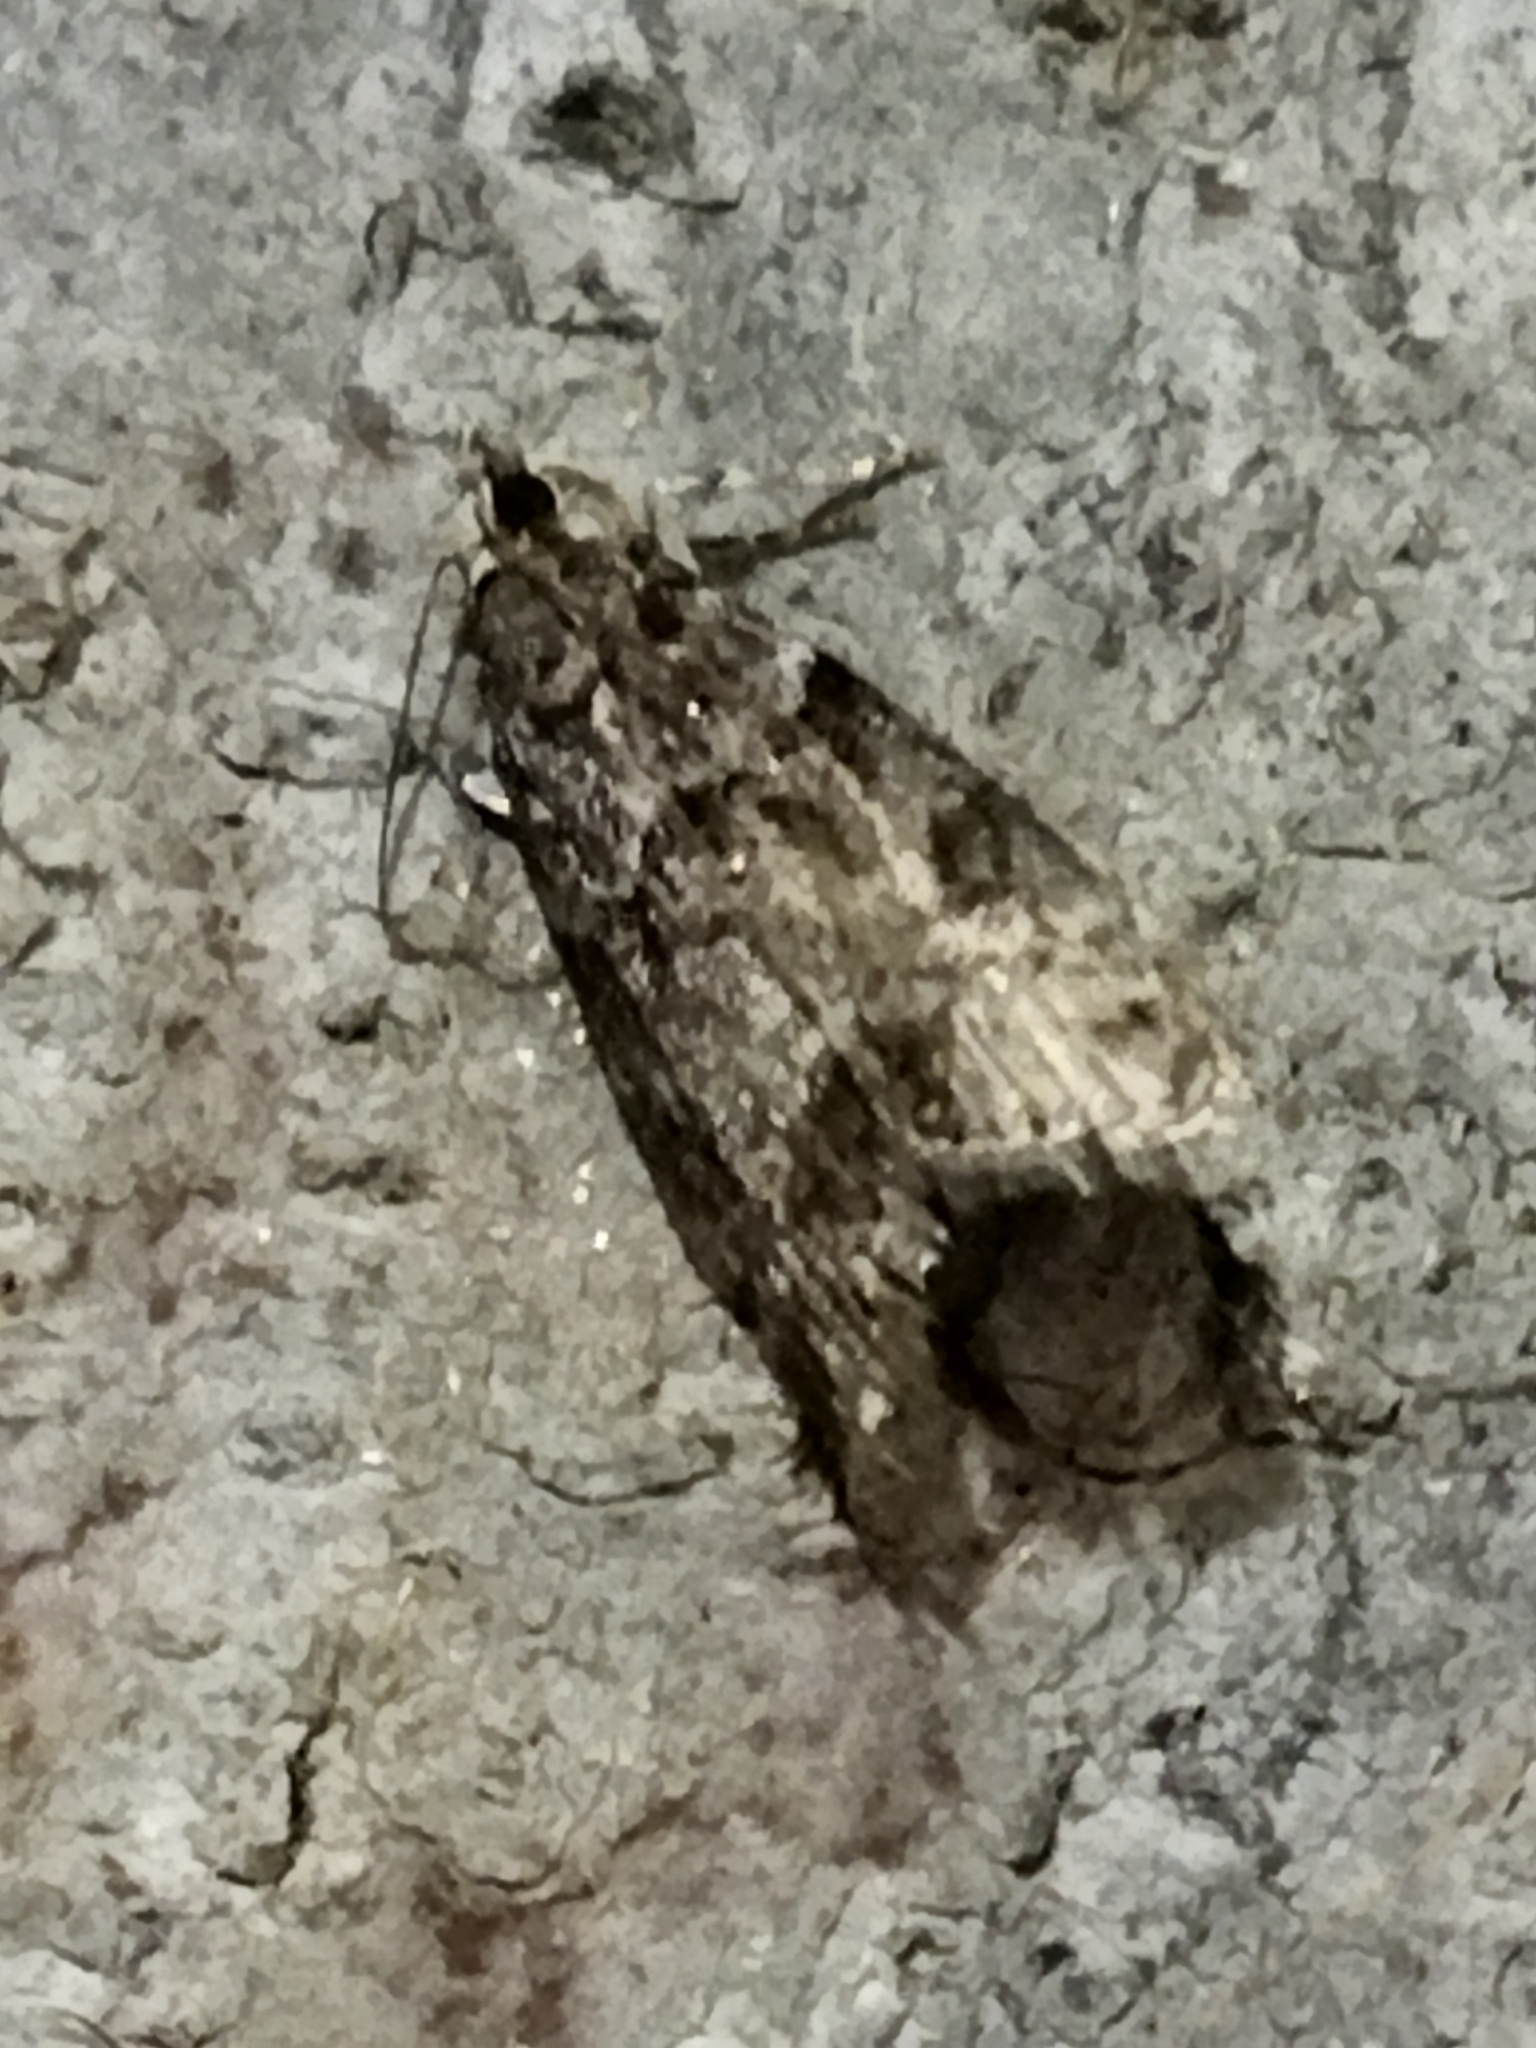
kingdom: Animalia
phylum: Arthropoda
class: Insecta
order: Lepidoptera
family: Crambidae
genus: Eudonia
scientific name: Eudonia mercurella
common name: Small grey
